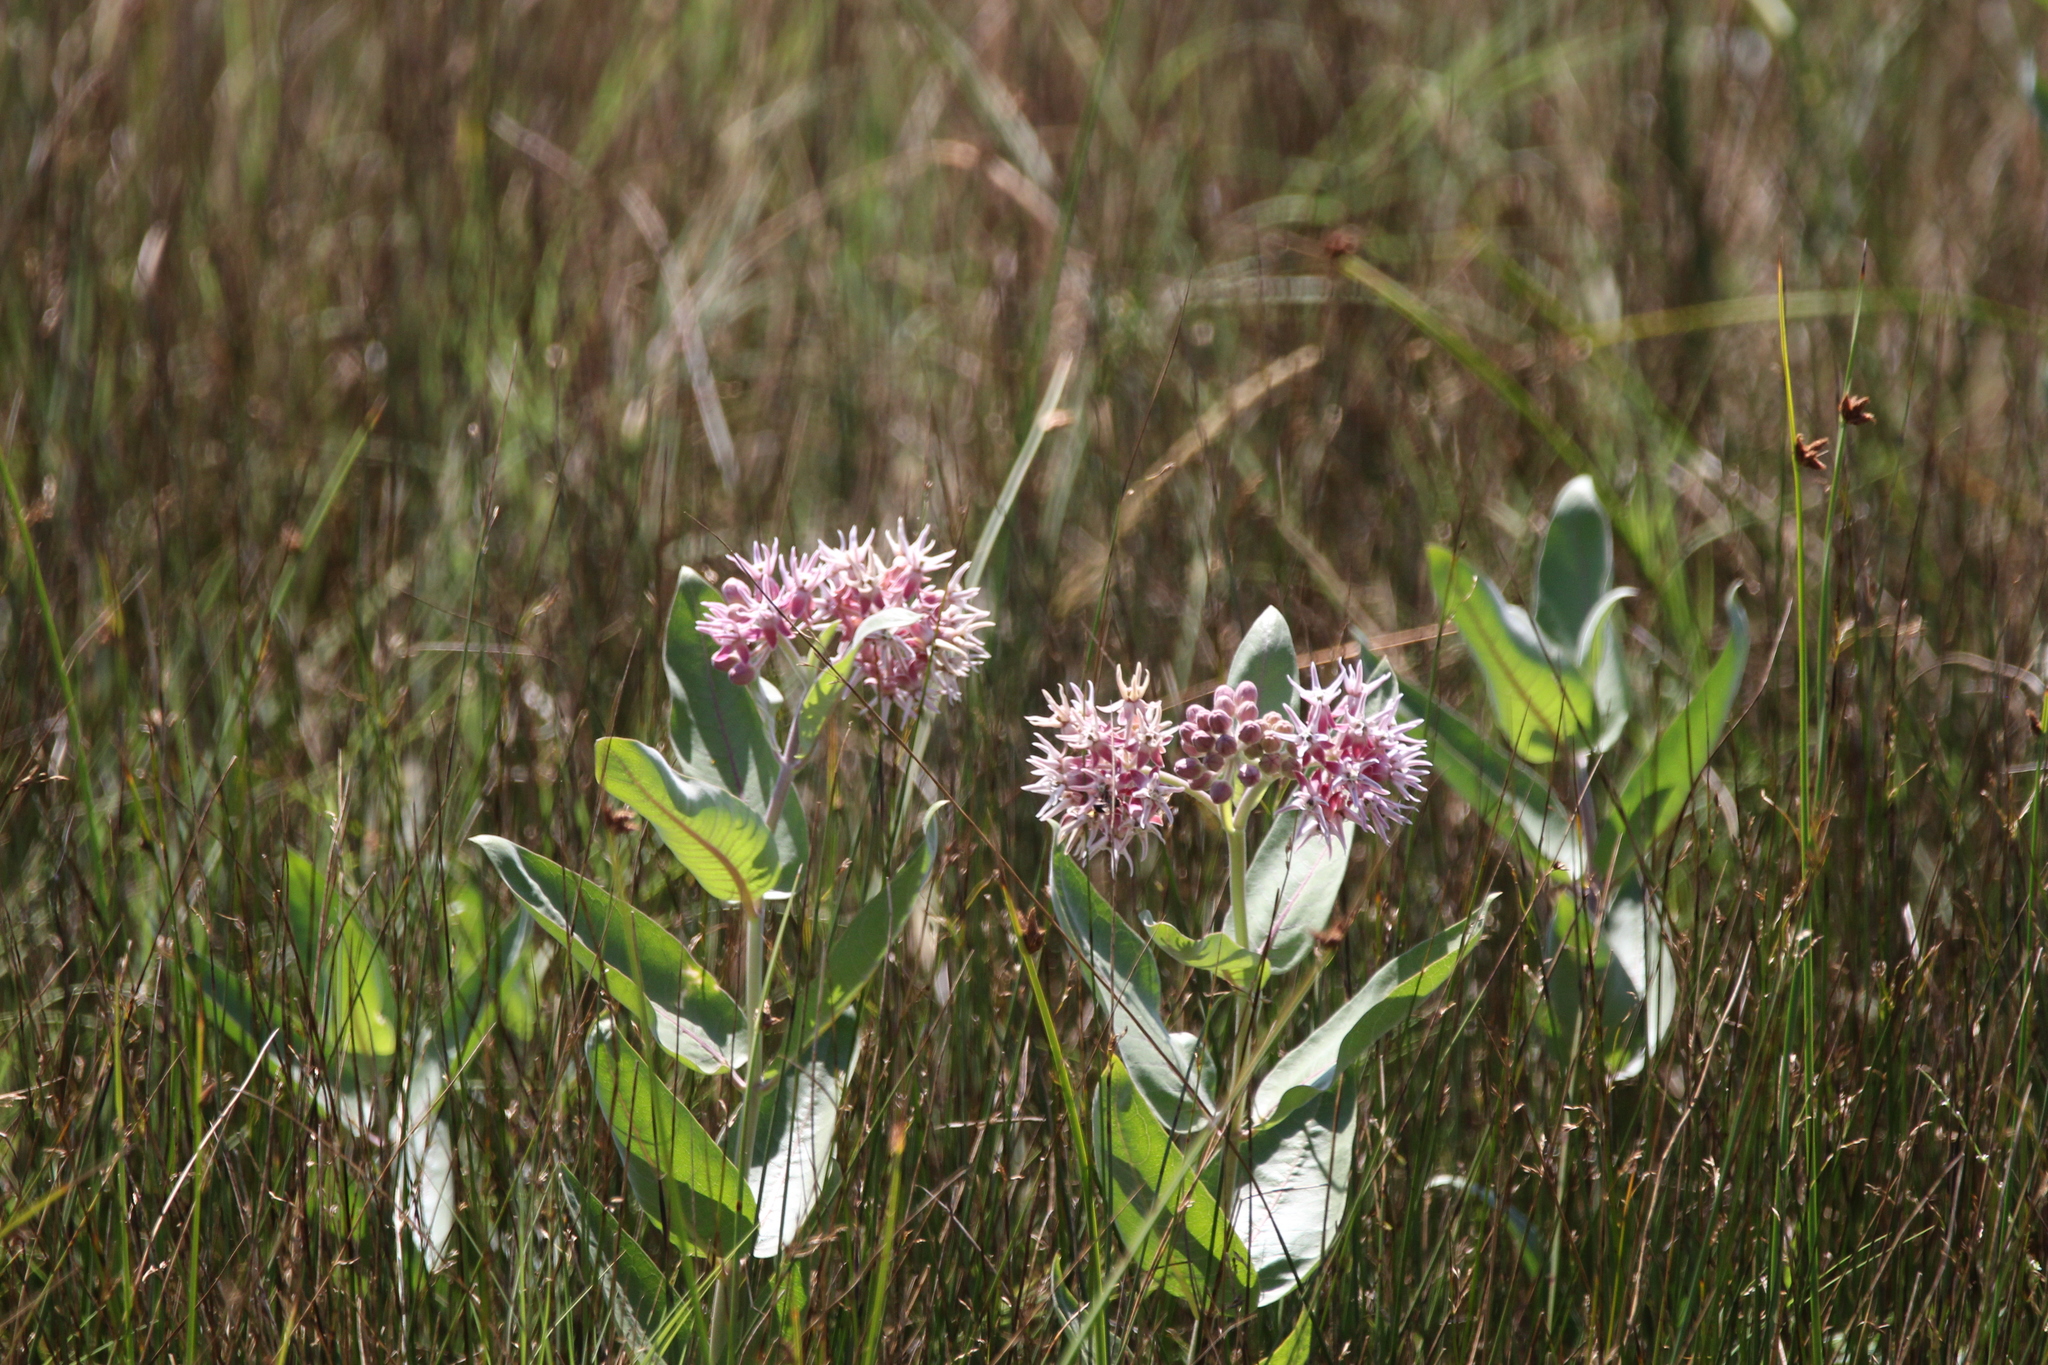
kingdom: Plantae
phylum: Tracheophyta
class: Magnoliopsida
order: Gentianales
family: Apocynaceae
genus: Asclepias
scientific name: Asclepias speciosa
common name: Showy milkweed
